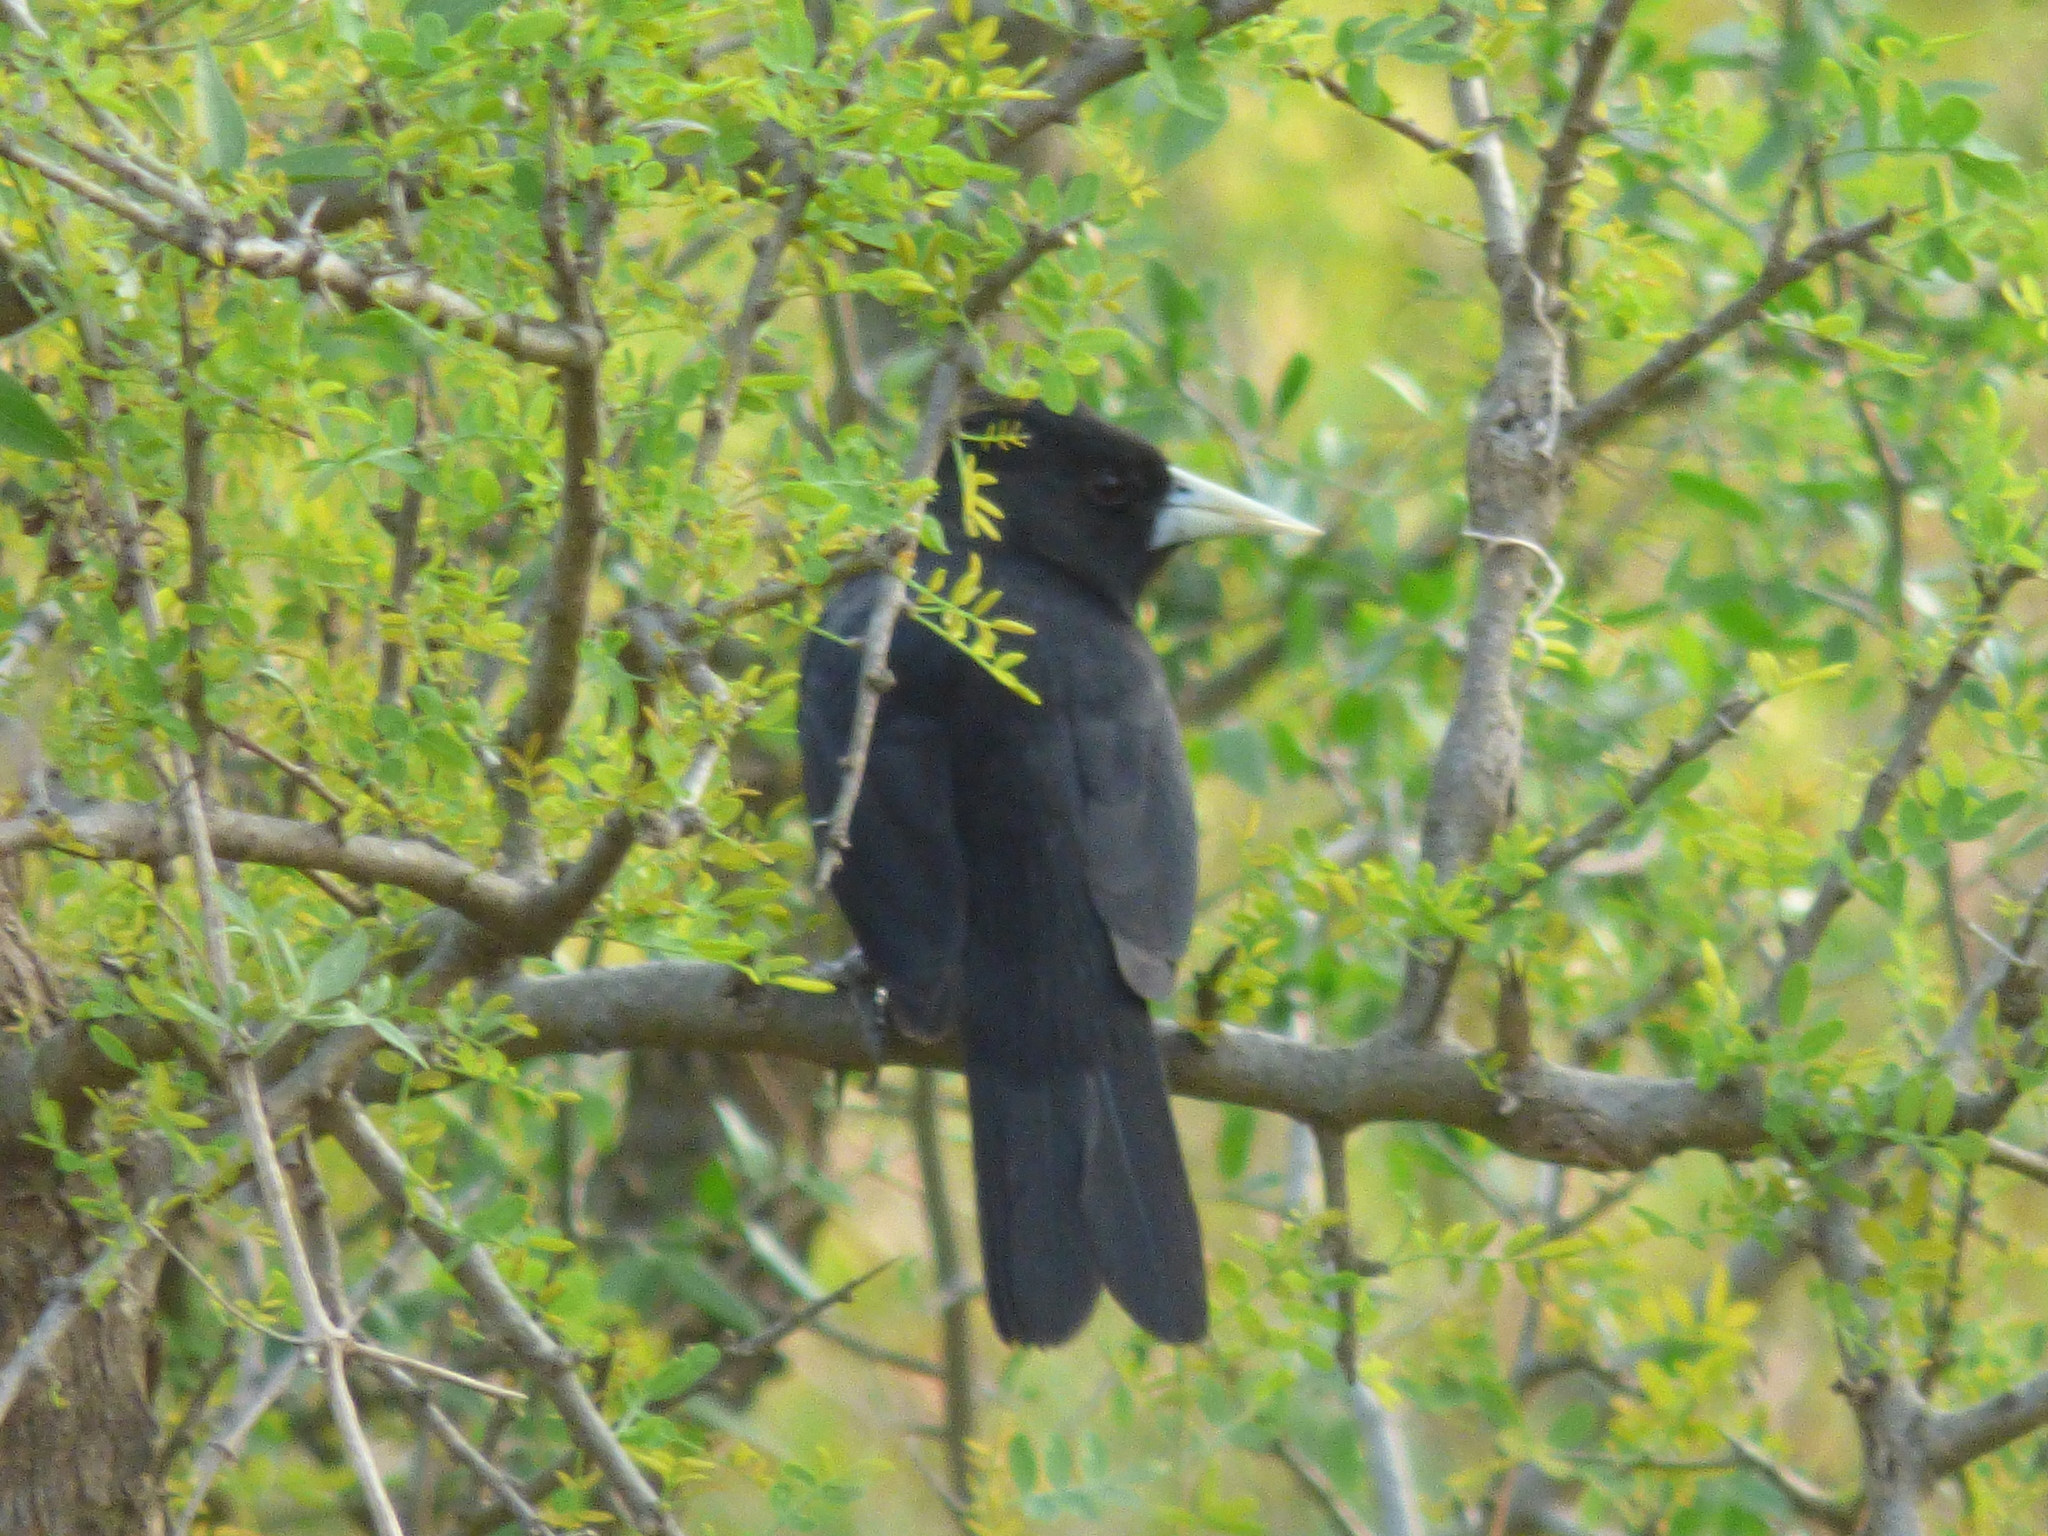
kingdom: Animalia
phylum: Chordata
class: Aves
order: Passeriformes
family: Icteridae
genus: Cacicus
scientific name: Cacicus solitarius
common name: Solitary cacique
